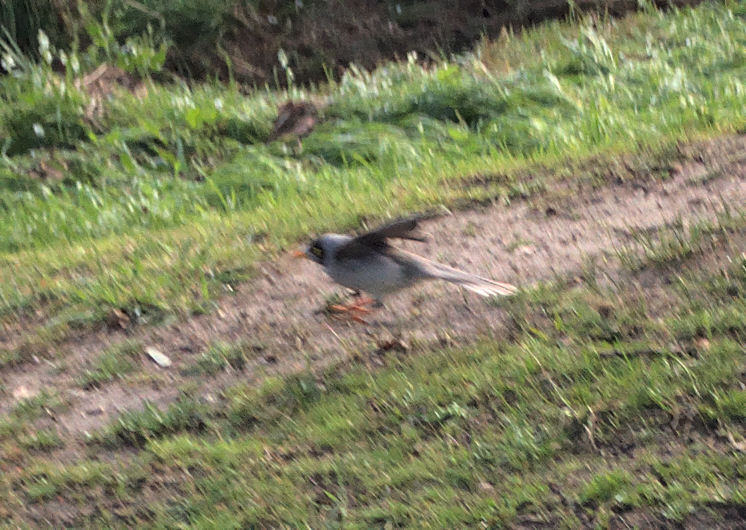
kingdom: Animalia
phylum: Chordata
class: Aves
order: Passeriformes
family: Meliphagidae
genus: Manorina
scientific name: Manorina melanocephala
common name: Noisy miner
